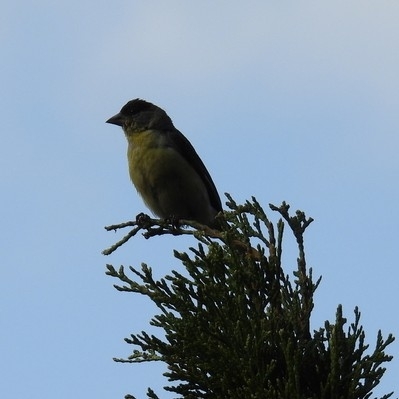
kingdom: Animalia
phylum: Chordata
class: Aves
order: Passeriformes
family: Fringillidae
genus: Spinus
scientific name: Spinus psaltria
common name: Lesser goldfinch
